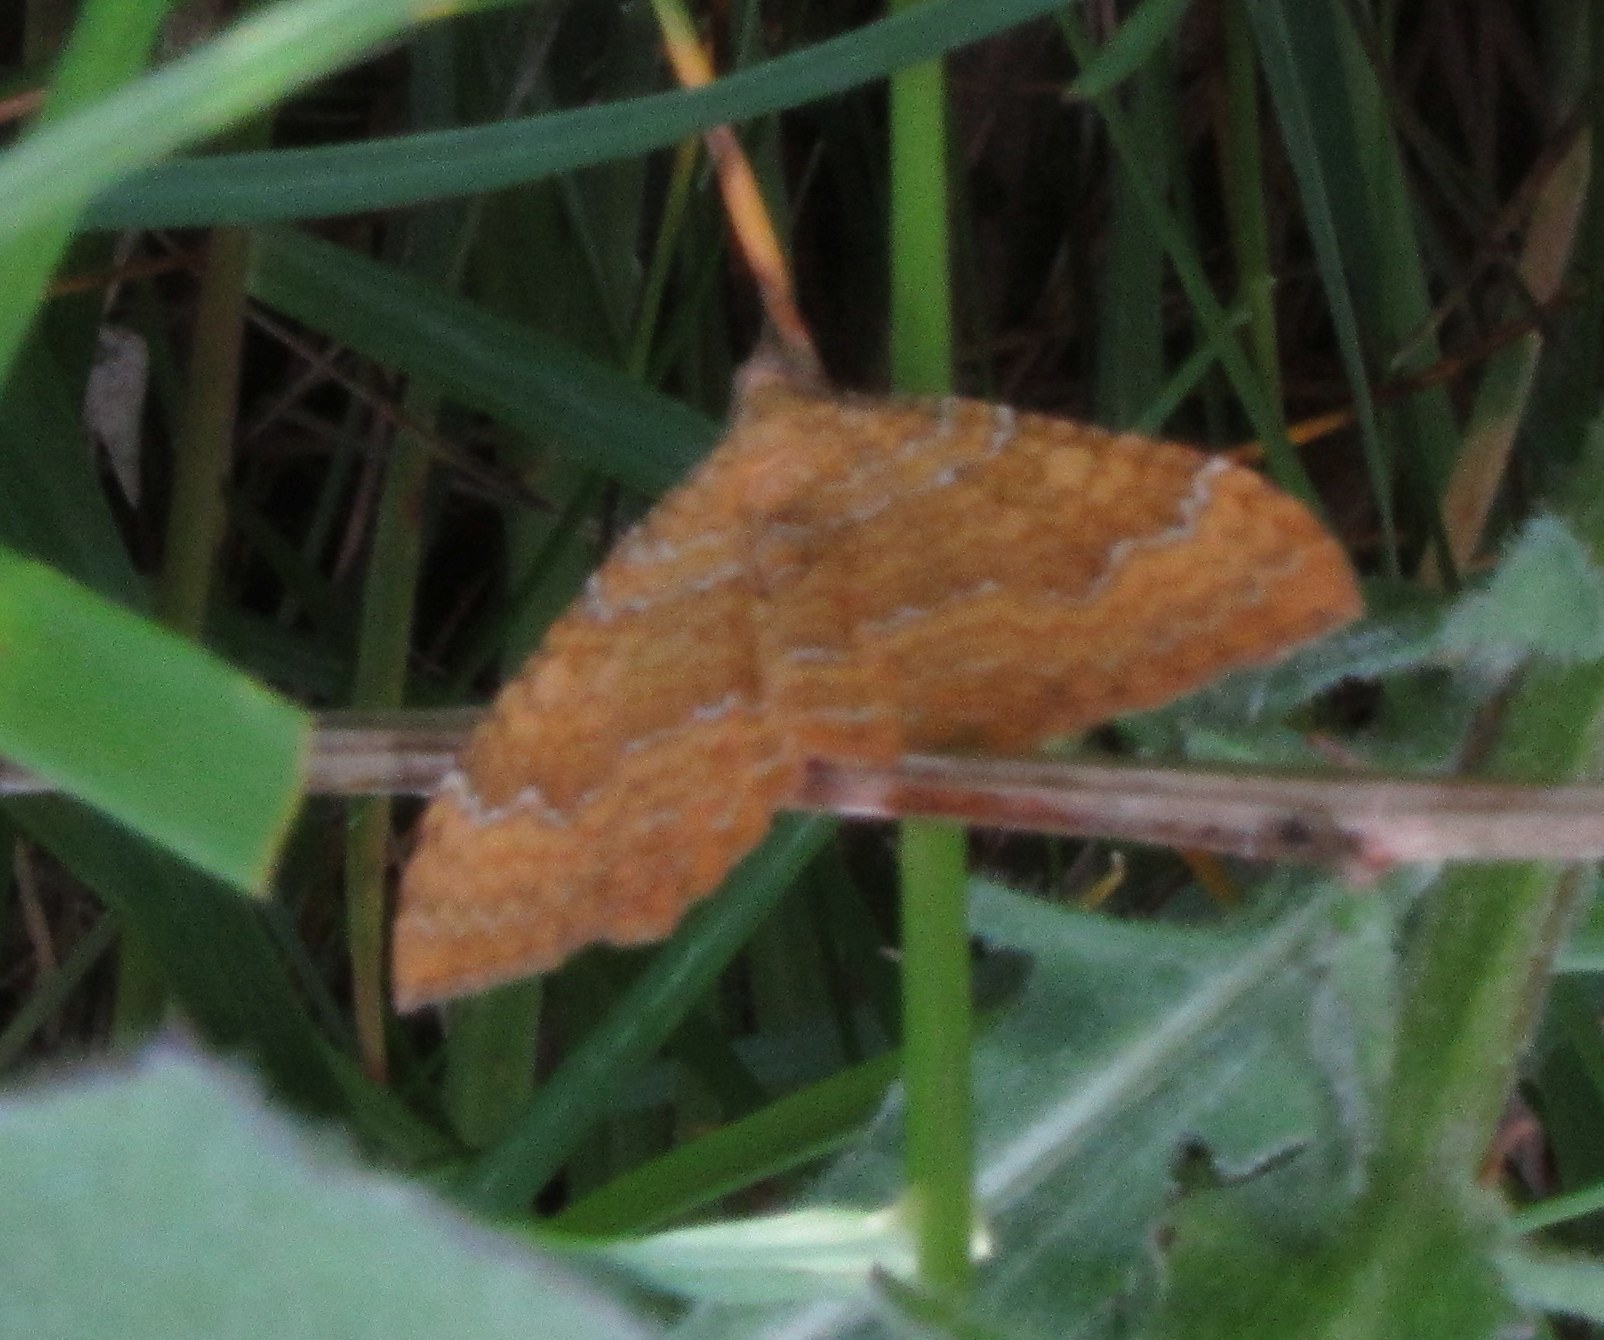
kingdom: Animalia
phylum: Arthropoda
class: Insecta
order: Lepidoptera
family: Geometridae
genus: Camptogramma
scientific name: Camptogramma bilineata
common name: Yellow shell
